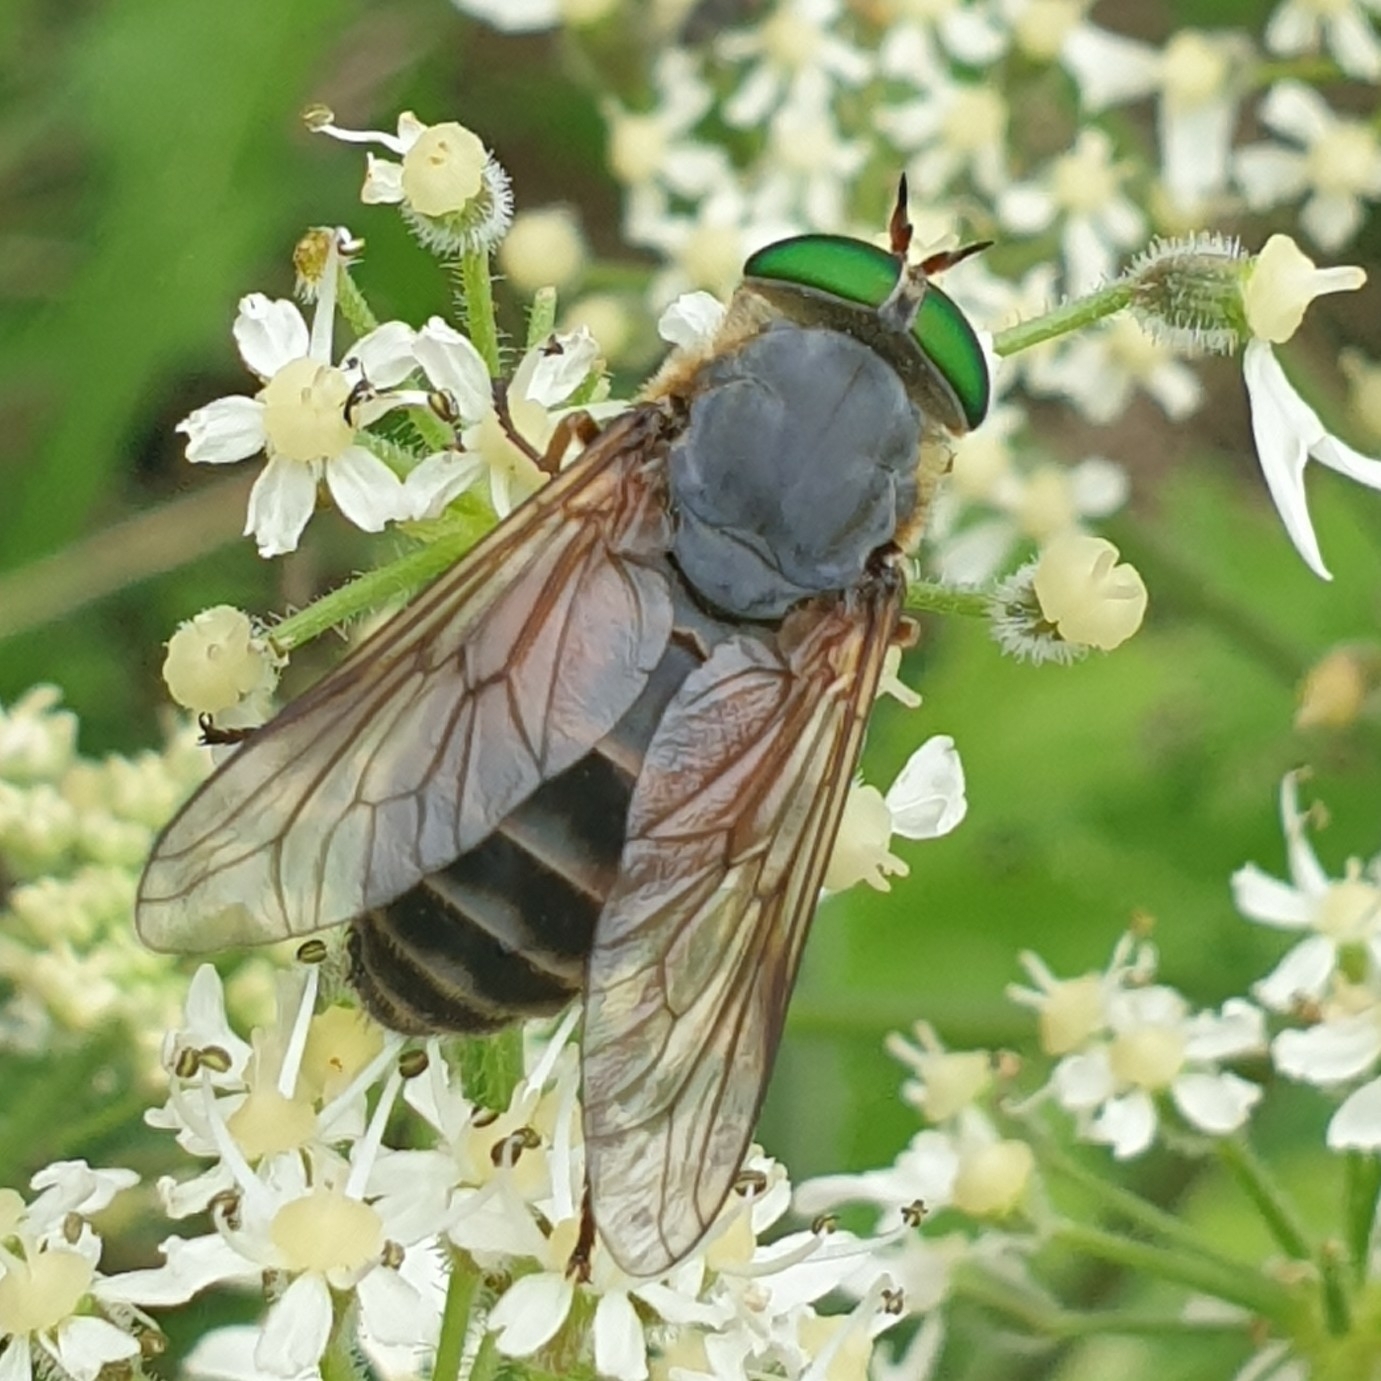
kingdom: Animalia
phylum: Arthropoda
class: Insecta
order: Diptera
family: Tabanidae
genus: Philipomyia
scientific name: Philipomyia aprica
